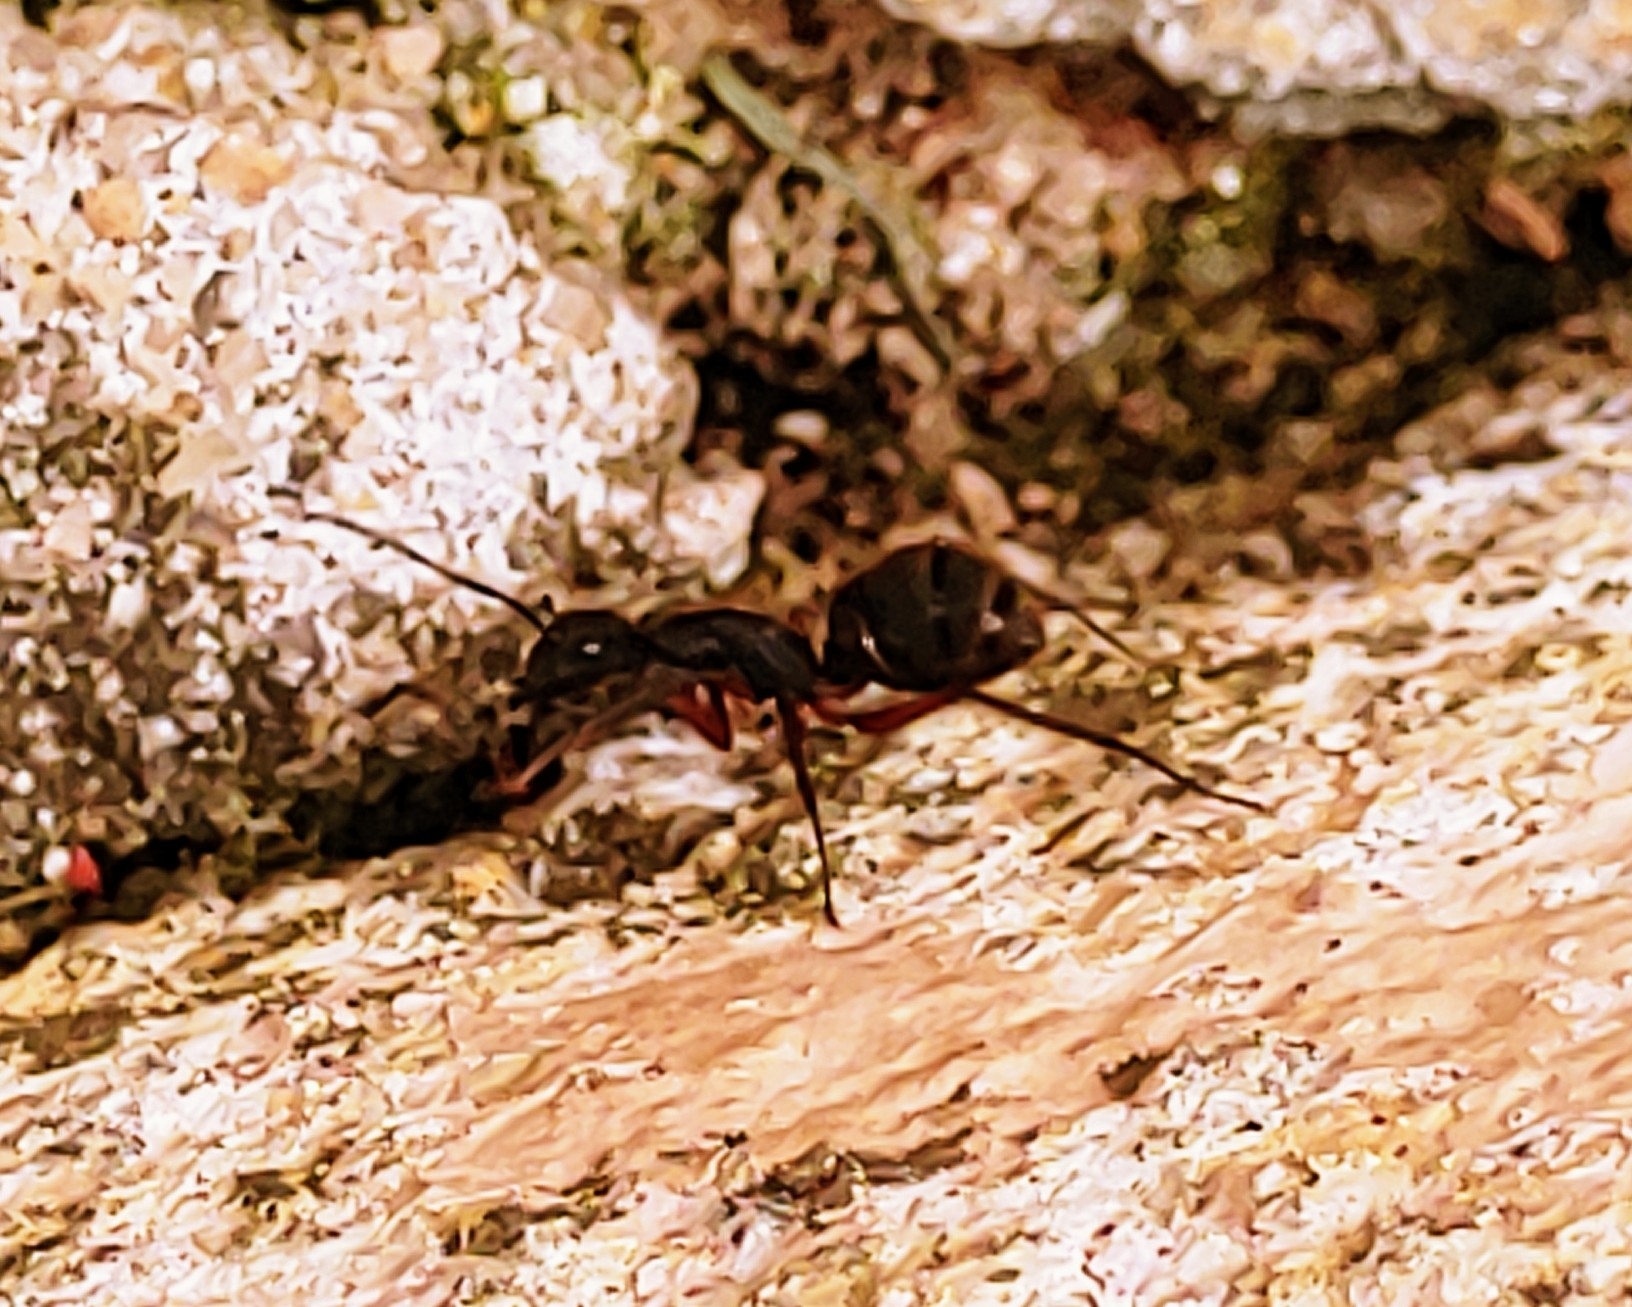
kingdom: Animalia
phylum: Arthropoda
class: Insecta
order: Hymenoptera
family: Formicidae
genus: Camponotus
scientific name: Camponotus rufipes
